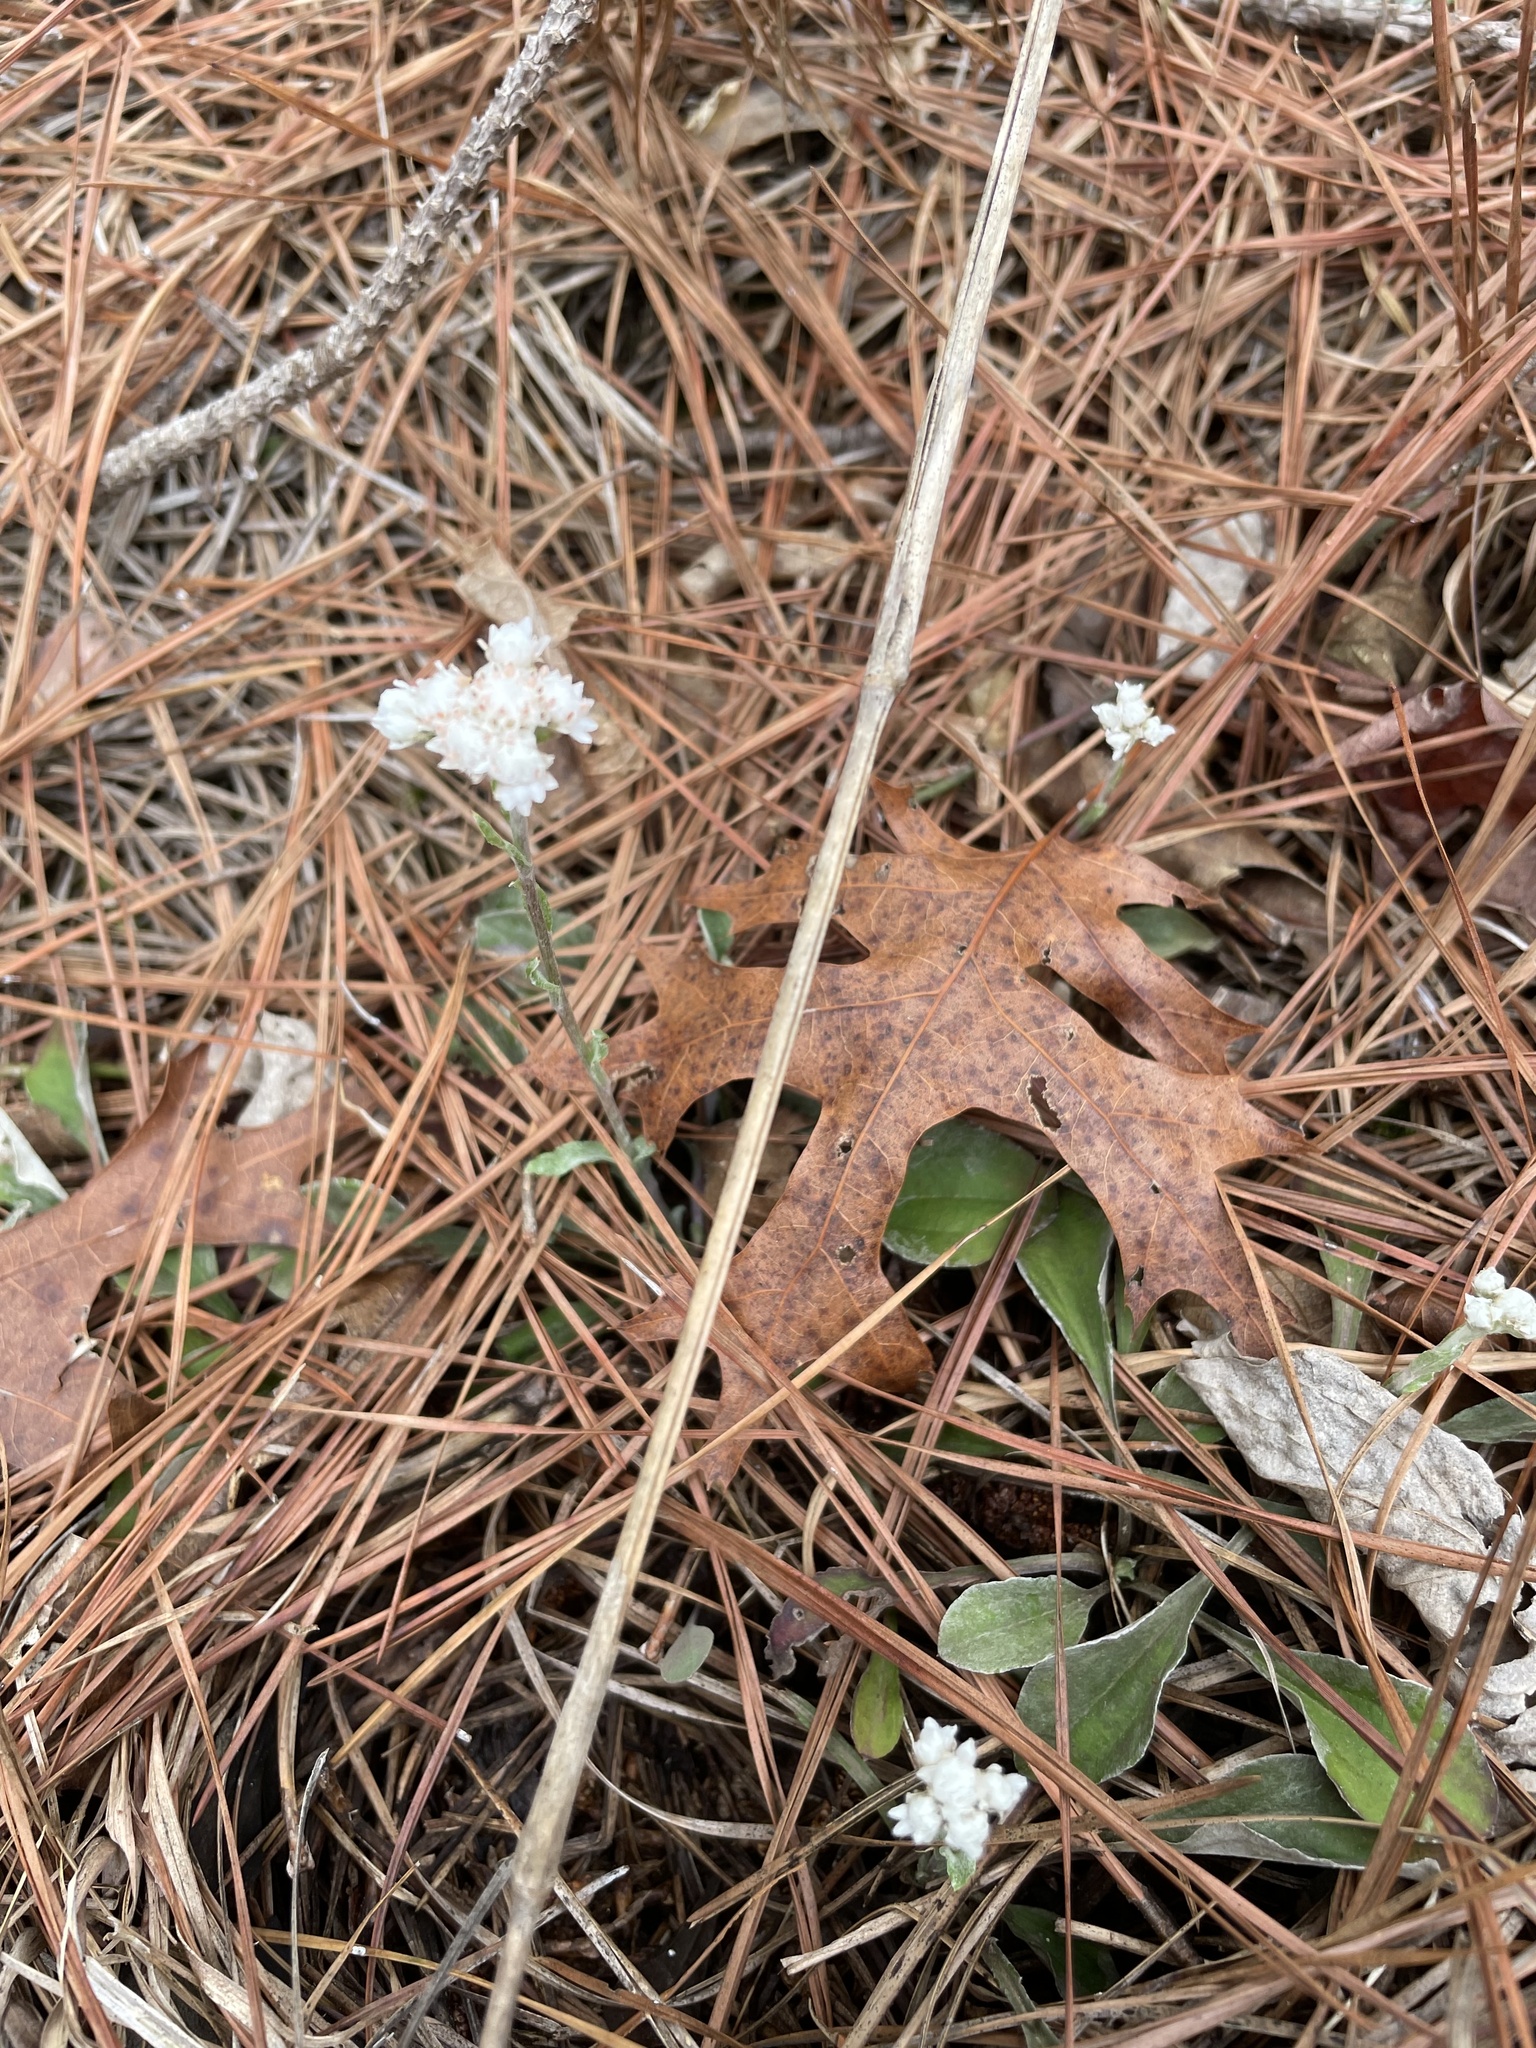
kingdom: Plantae
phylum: Tracheophyta
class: Magnoliopsida
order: Asterales
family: Asteraceae
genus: Antennaria
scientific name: Antennaria parlinii
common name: Parlin's pussytoes
